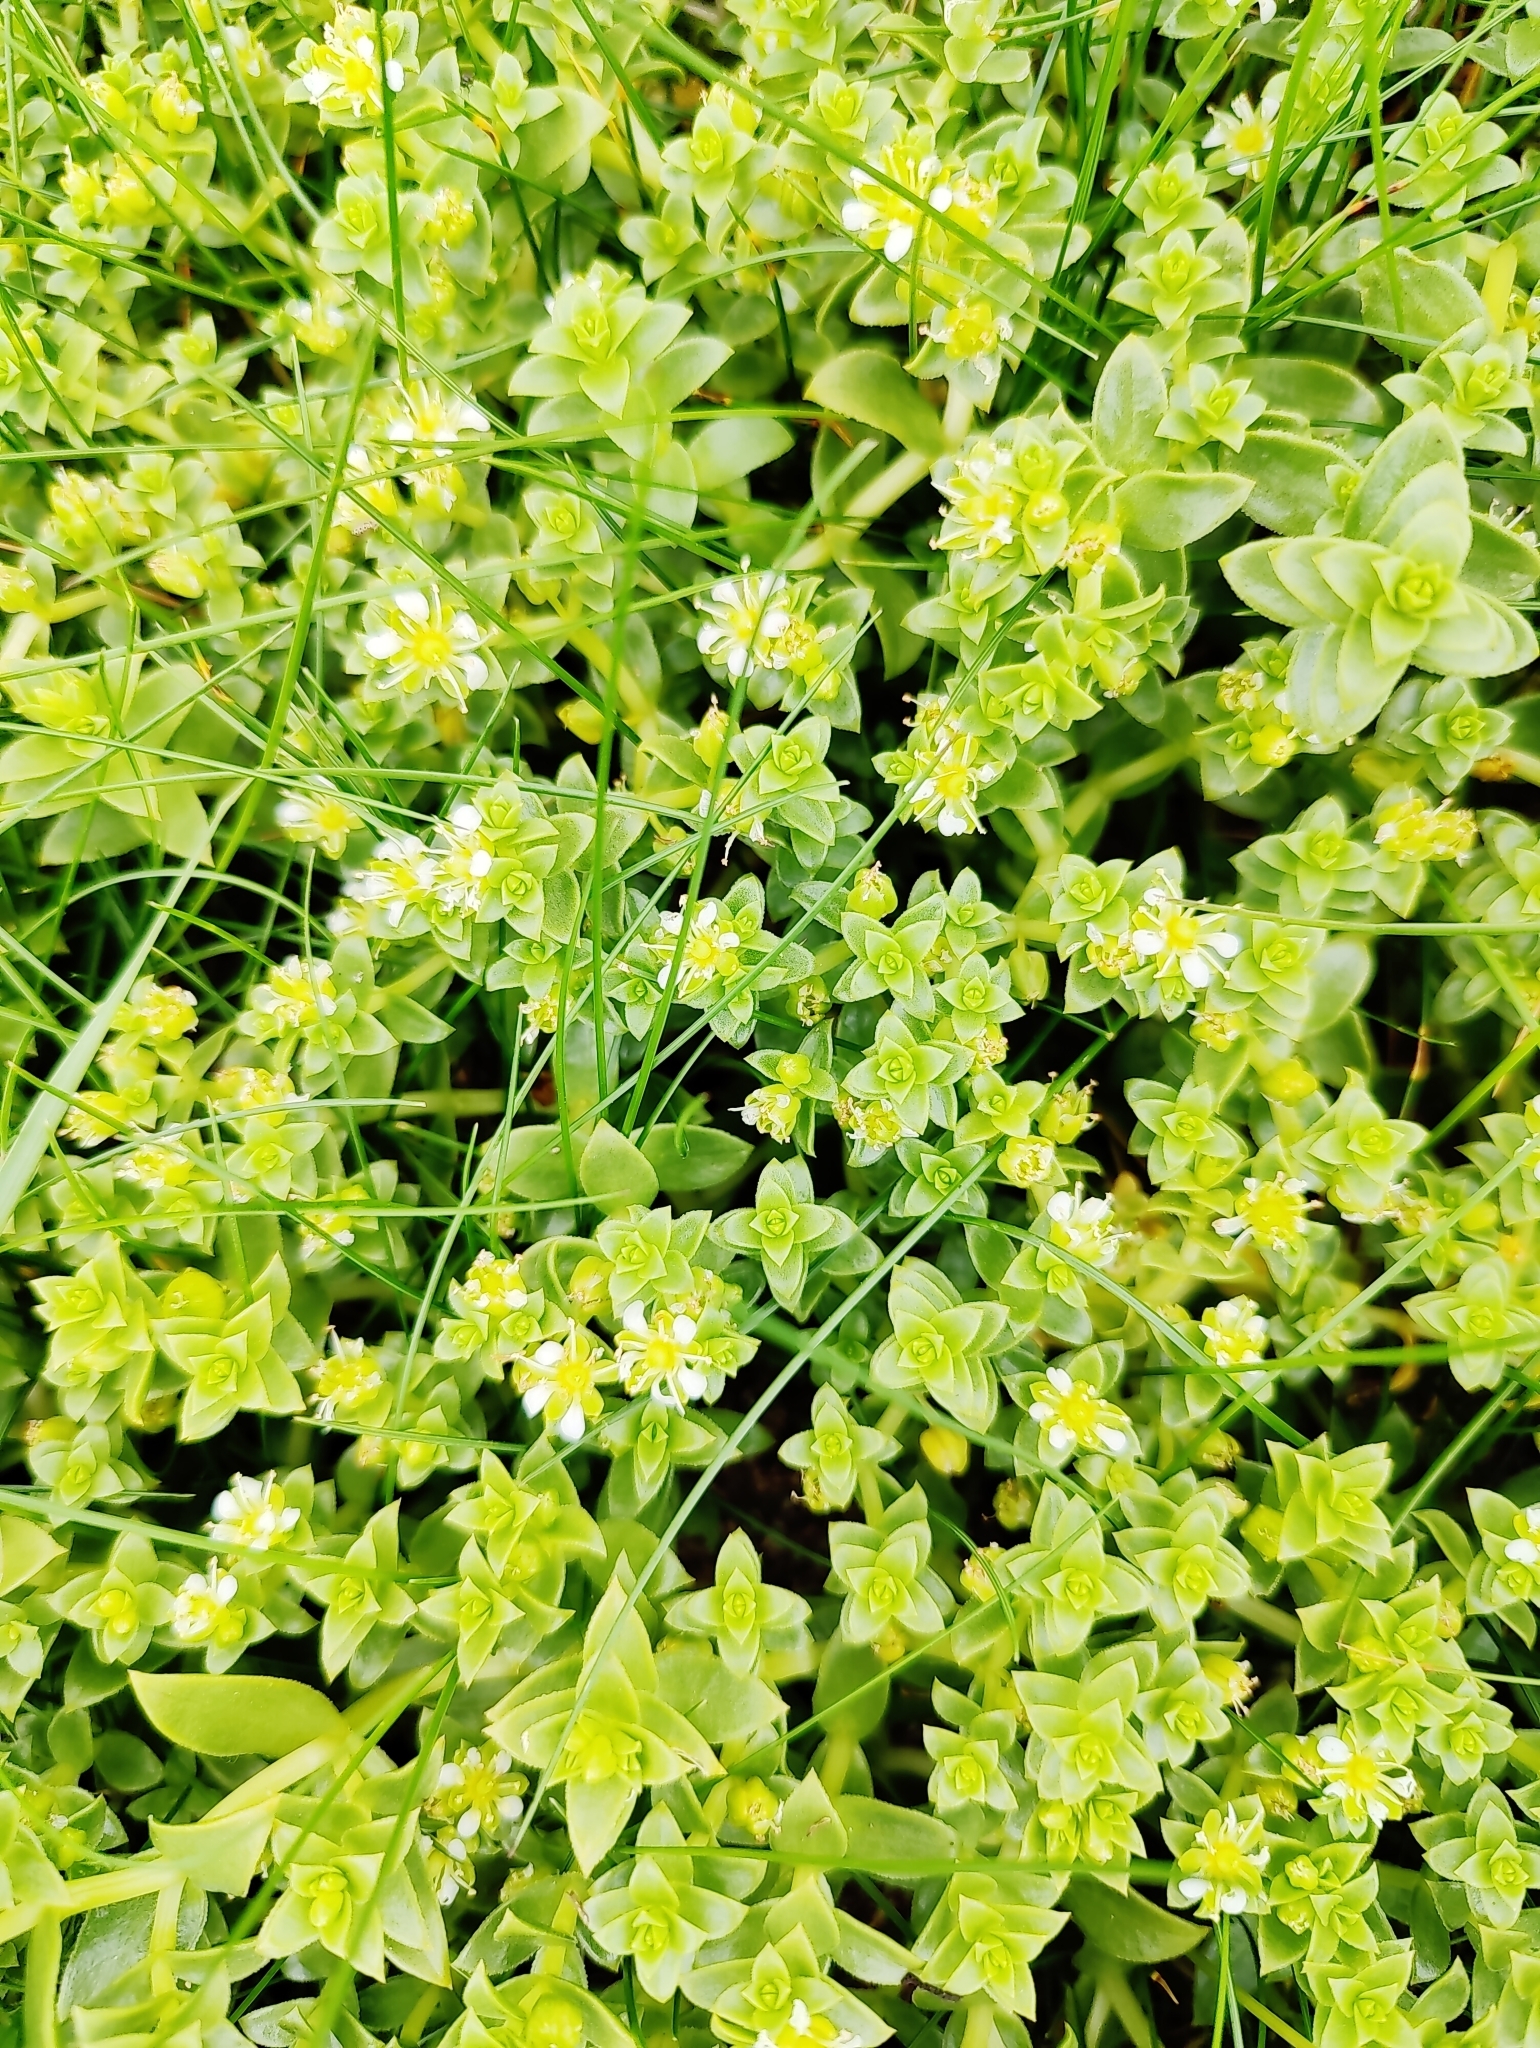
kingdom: Plantae
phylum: Tracheophyta
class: Magnoliopsida
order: Caryophyllales
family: Caryophyllaceae
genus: Honckenya
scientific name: Honckenya peploides
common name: Sea sandwort
